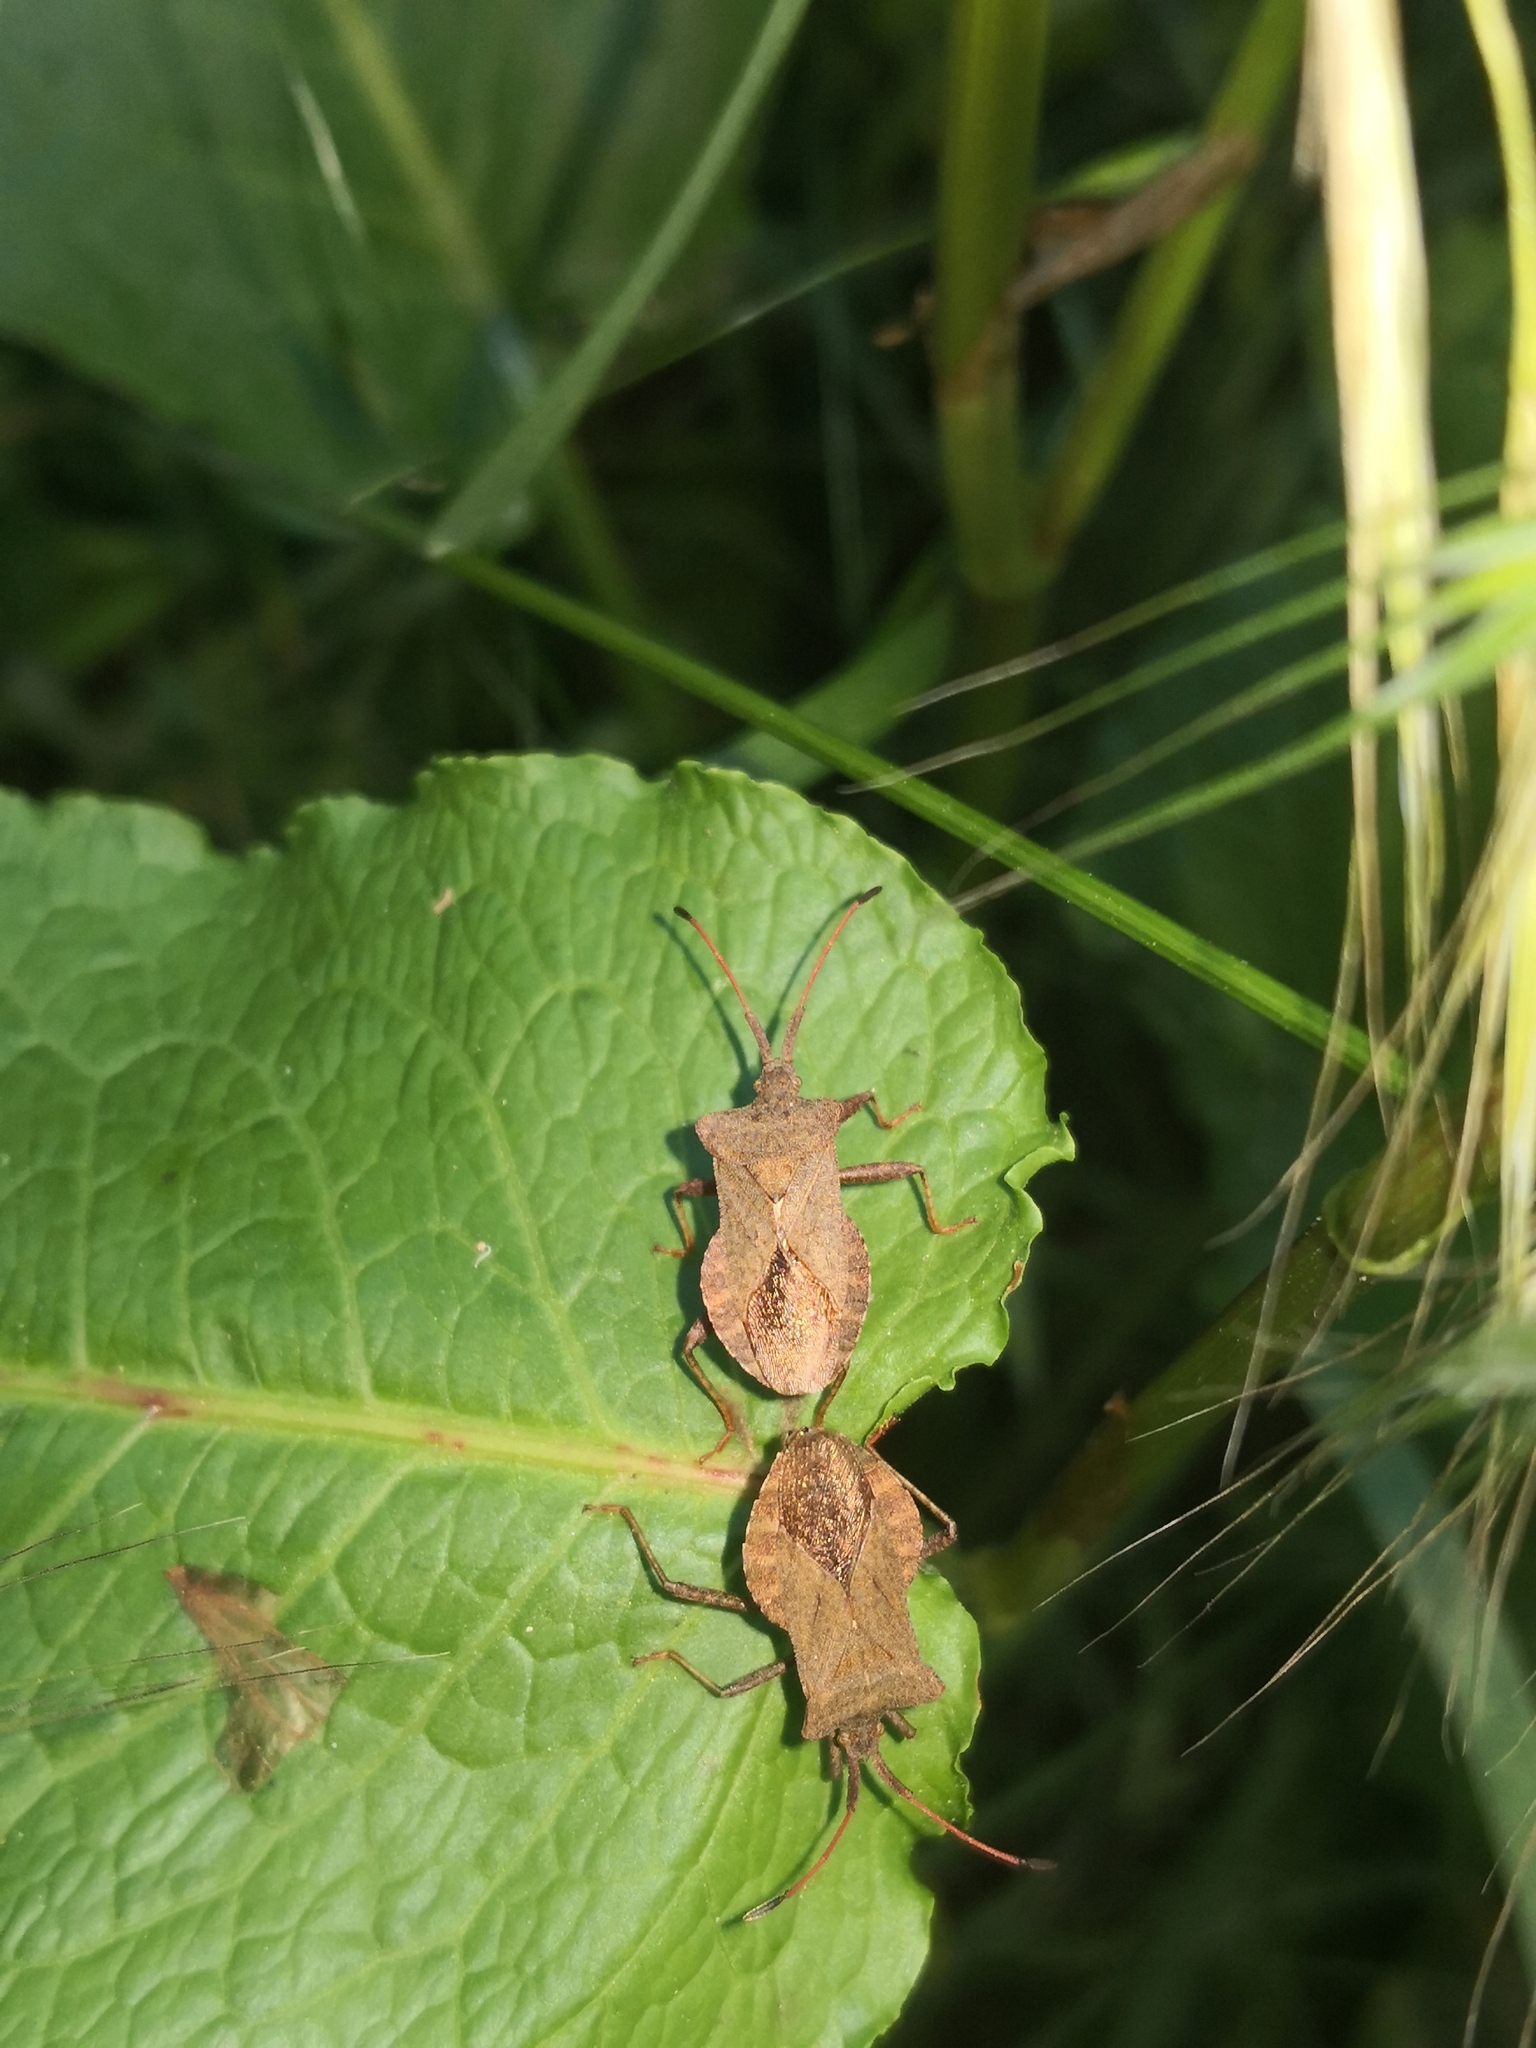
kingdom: Animalia
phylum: Arthropoda
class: Insecta
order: Hemiptera
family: Coreidae
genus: Coreus
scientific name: Coreus marginatus
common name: Dock bug
